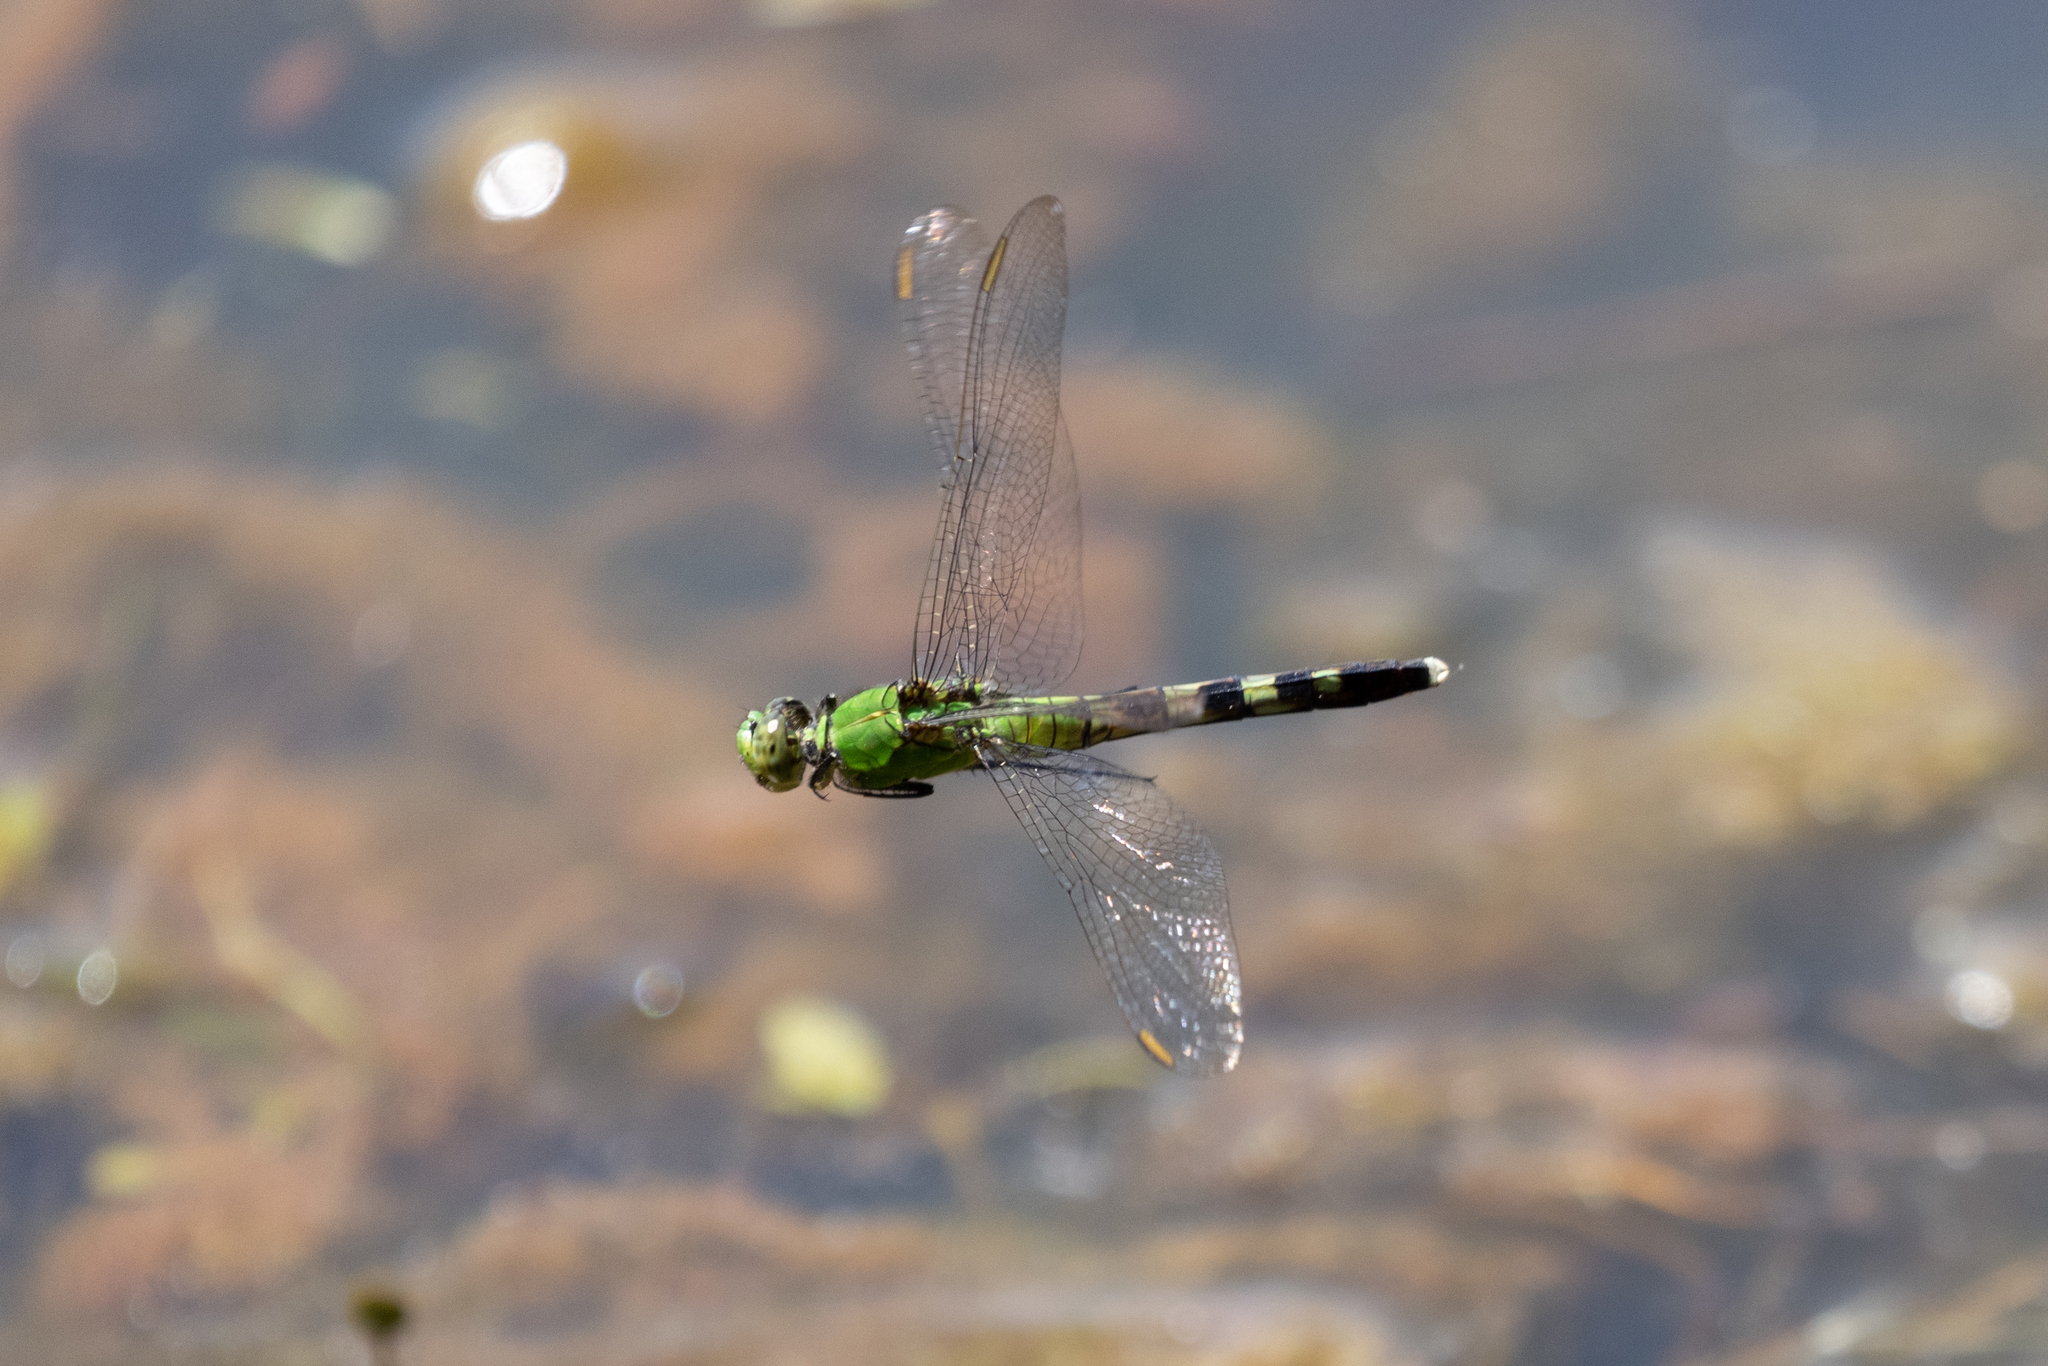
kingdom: Animalia
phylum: Arthropoda
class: Insecta
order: Odonata
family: Libellulidae
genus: Erythemis
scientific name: Erythemis simplicicollis
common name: Eastern pondhawk
